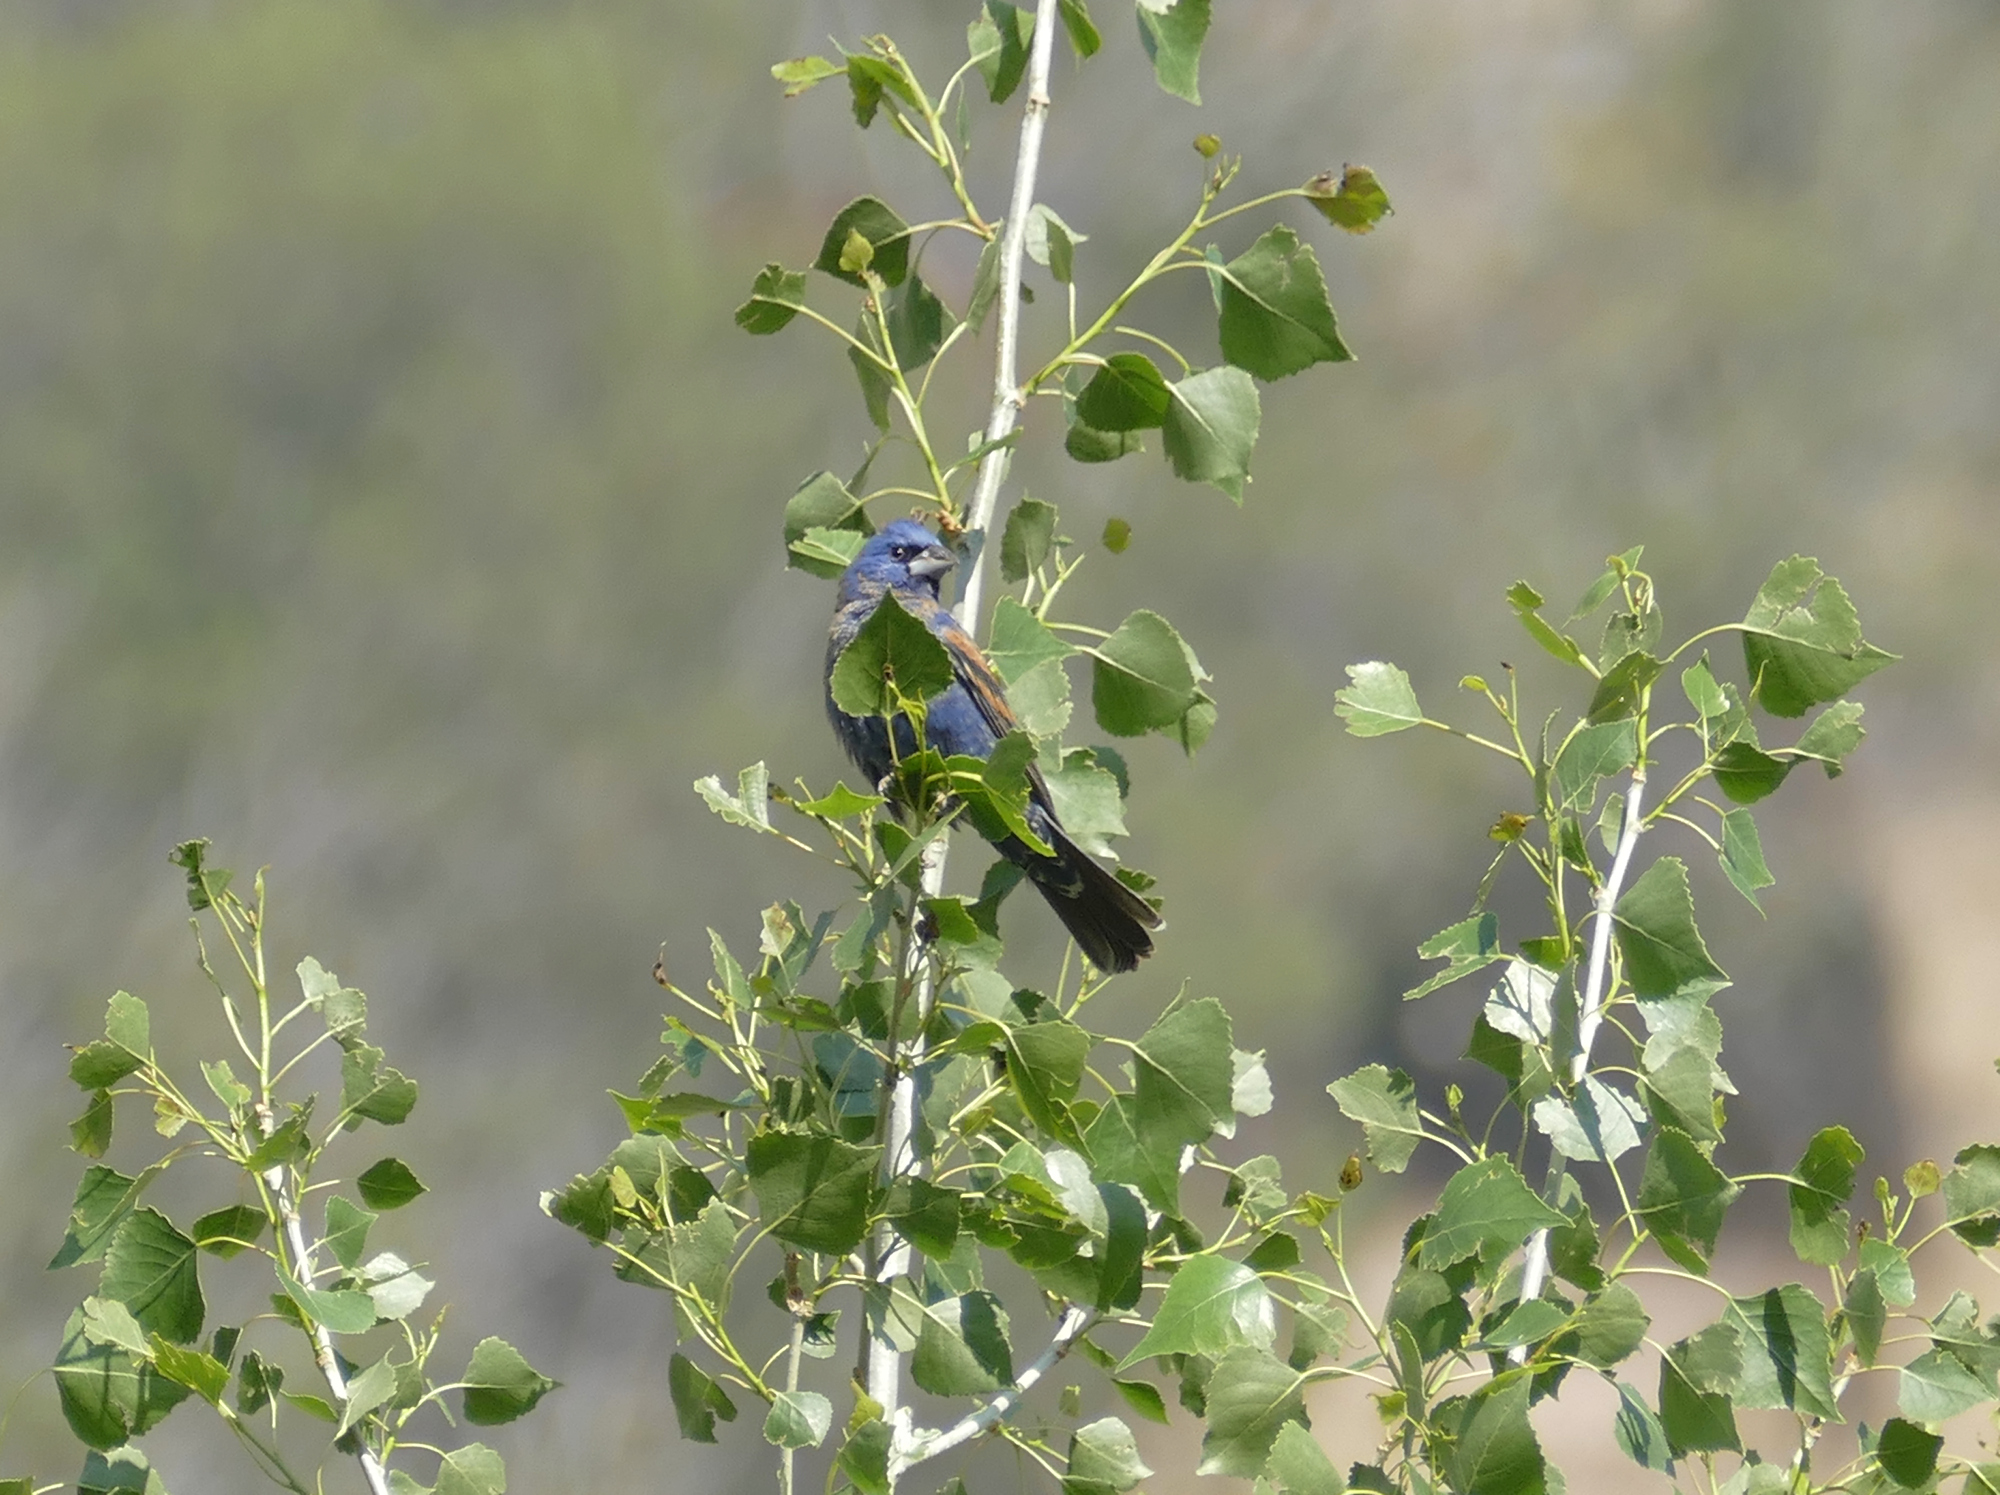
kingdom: Animalia
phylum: Chordata
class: Aves
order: Passeriformes
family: Cardinalidae
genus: Passerina
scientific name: Passerina caerulea
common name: Blue grosbeak
